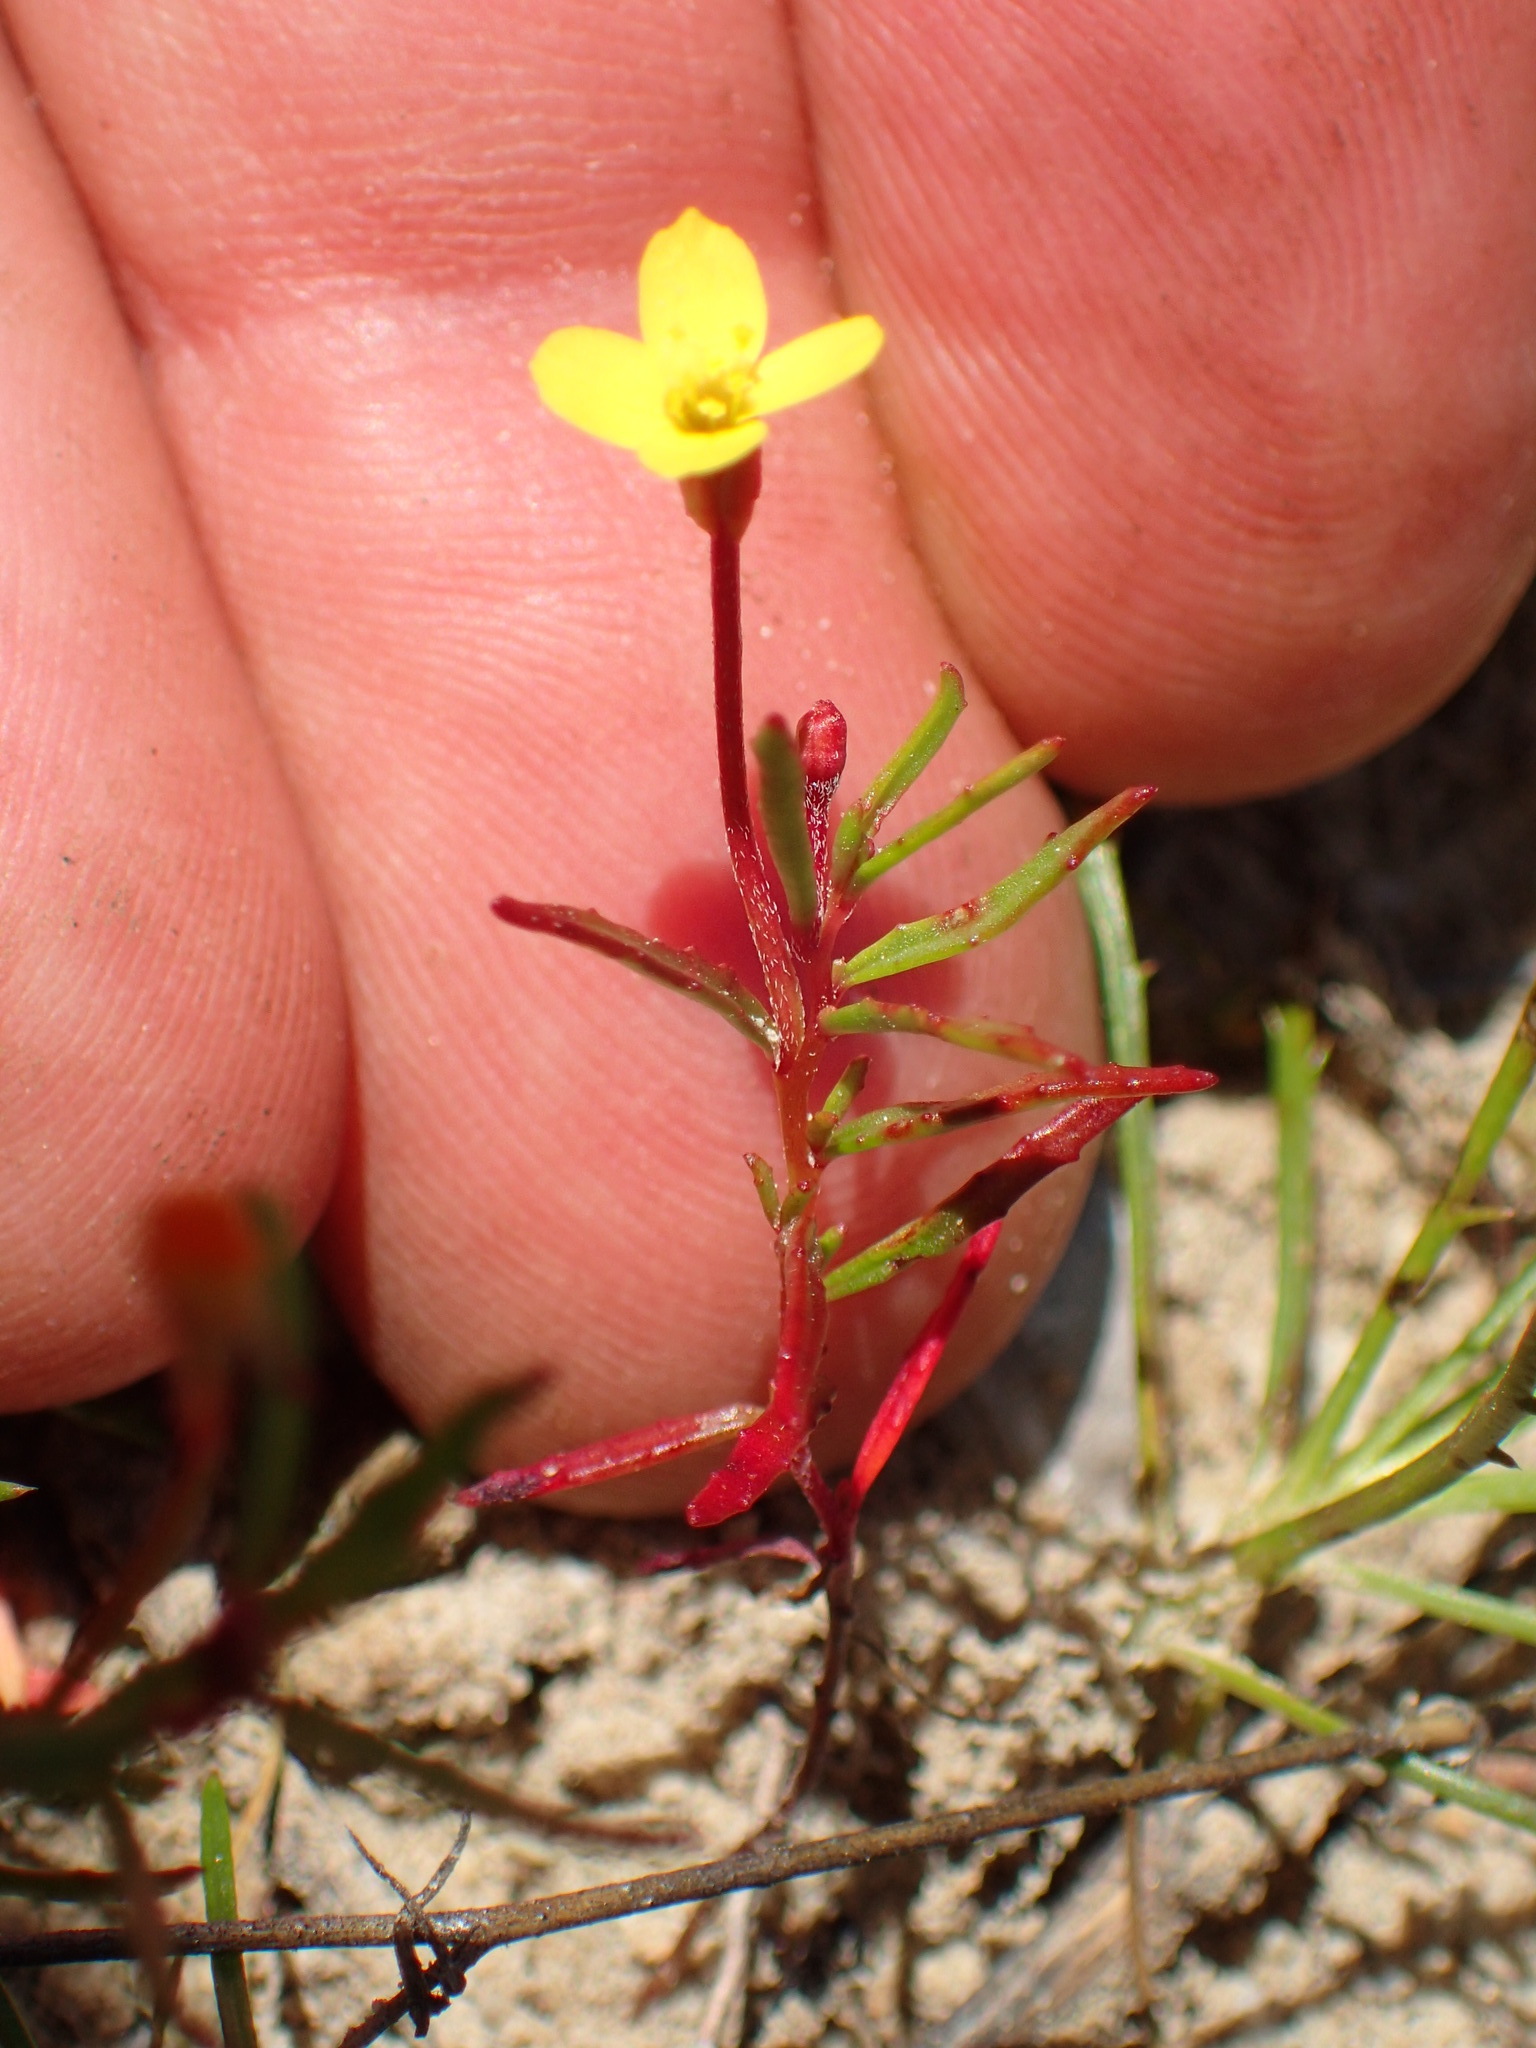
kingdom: Plantae
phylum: Tracheophyta
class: Magnoliopsida
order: Myrtales
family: Onagraceae
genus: Camissonia
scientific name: Camissonia strigulosa
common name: Contorted-primrose
